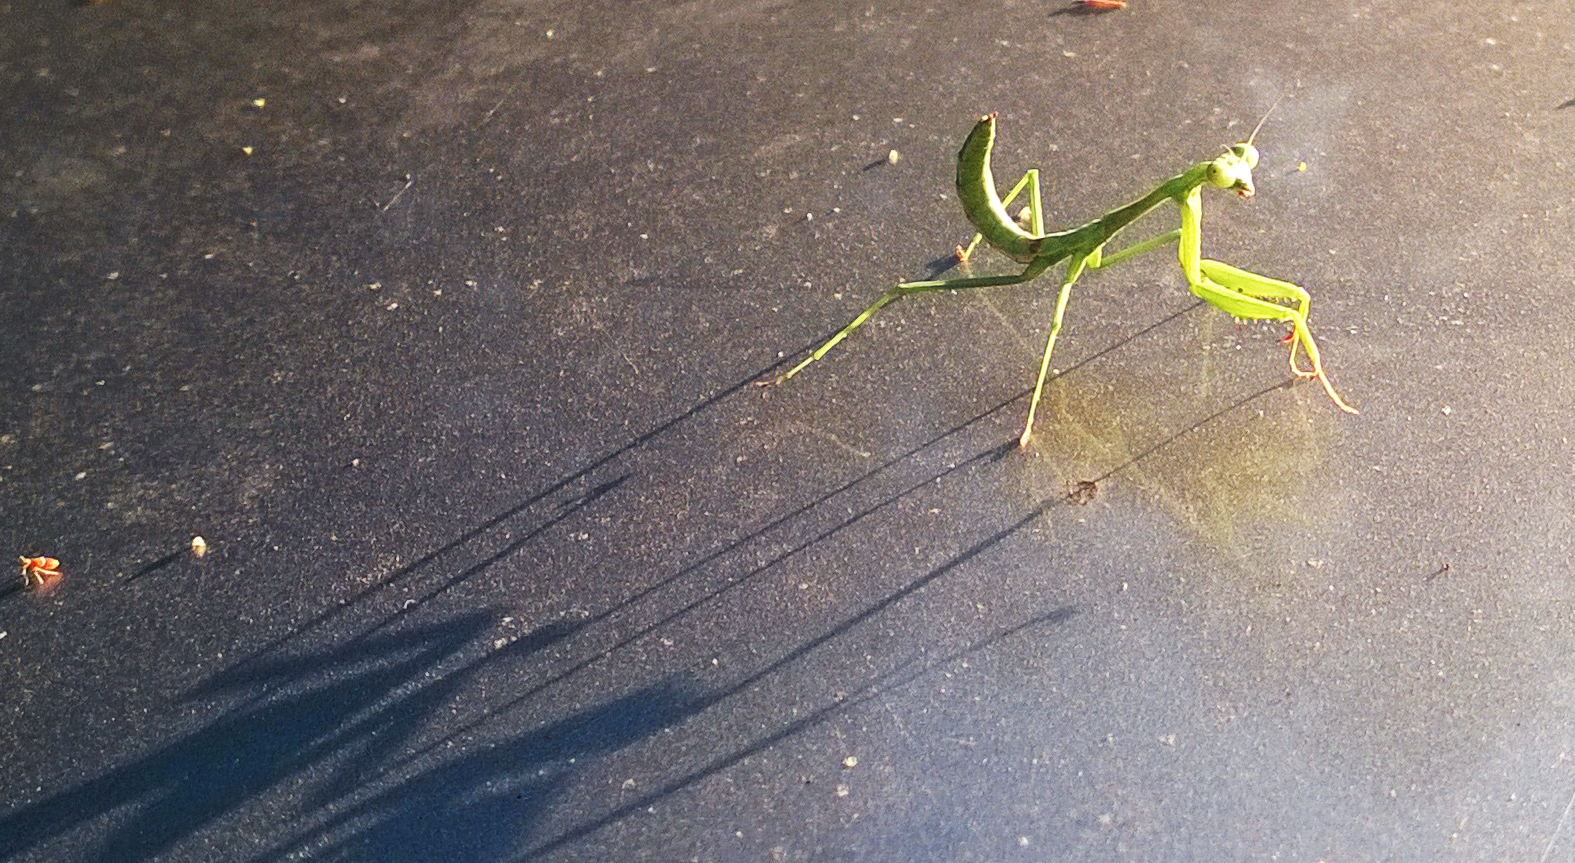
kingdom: Animalia
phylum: Arthropoda
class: Insecta
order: Mantodea
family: Mantidae
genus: Stagmomantis
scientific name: Stagmomantis carolina
